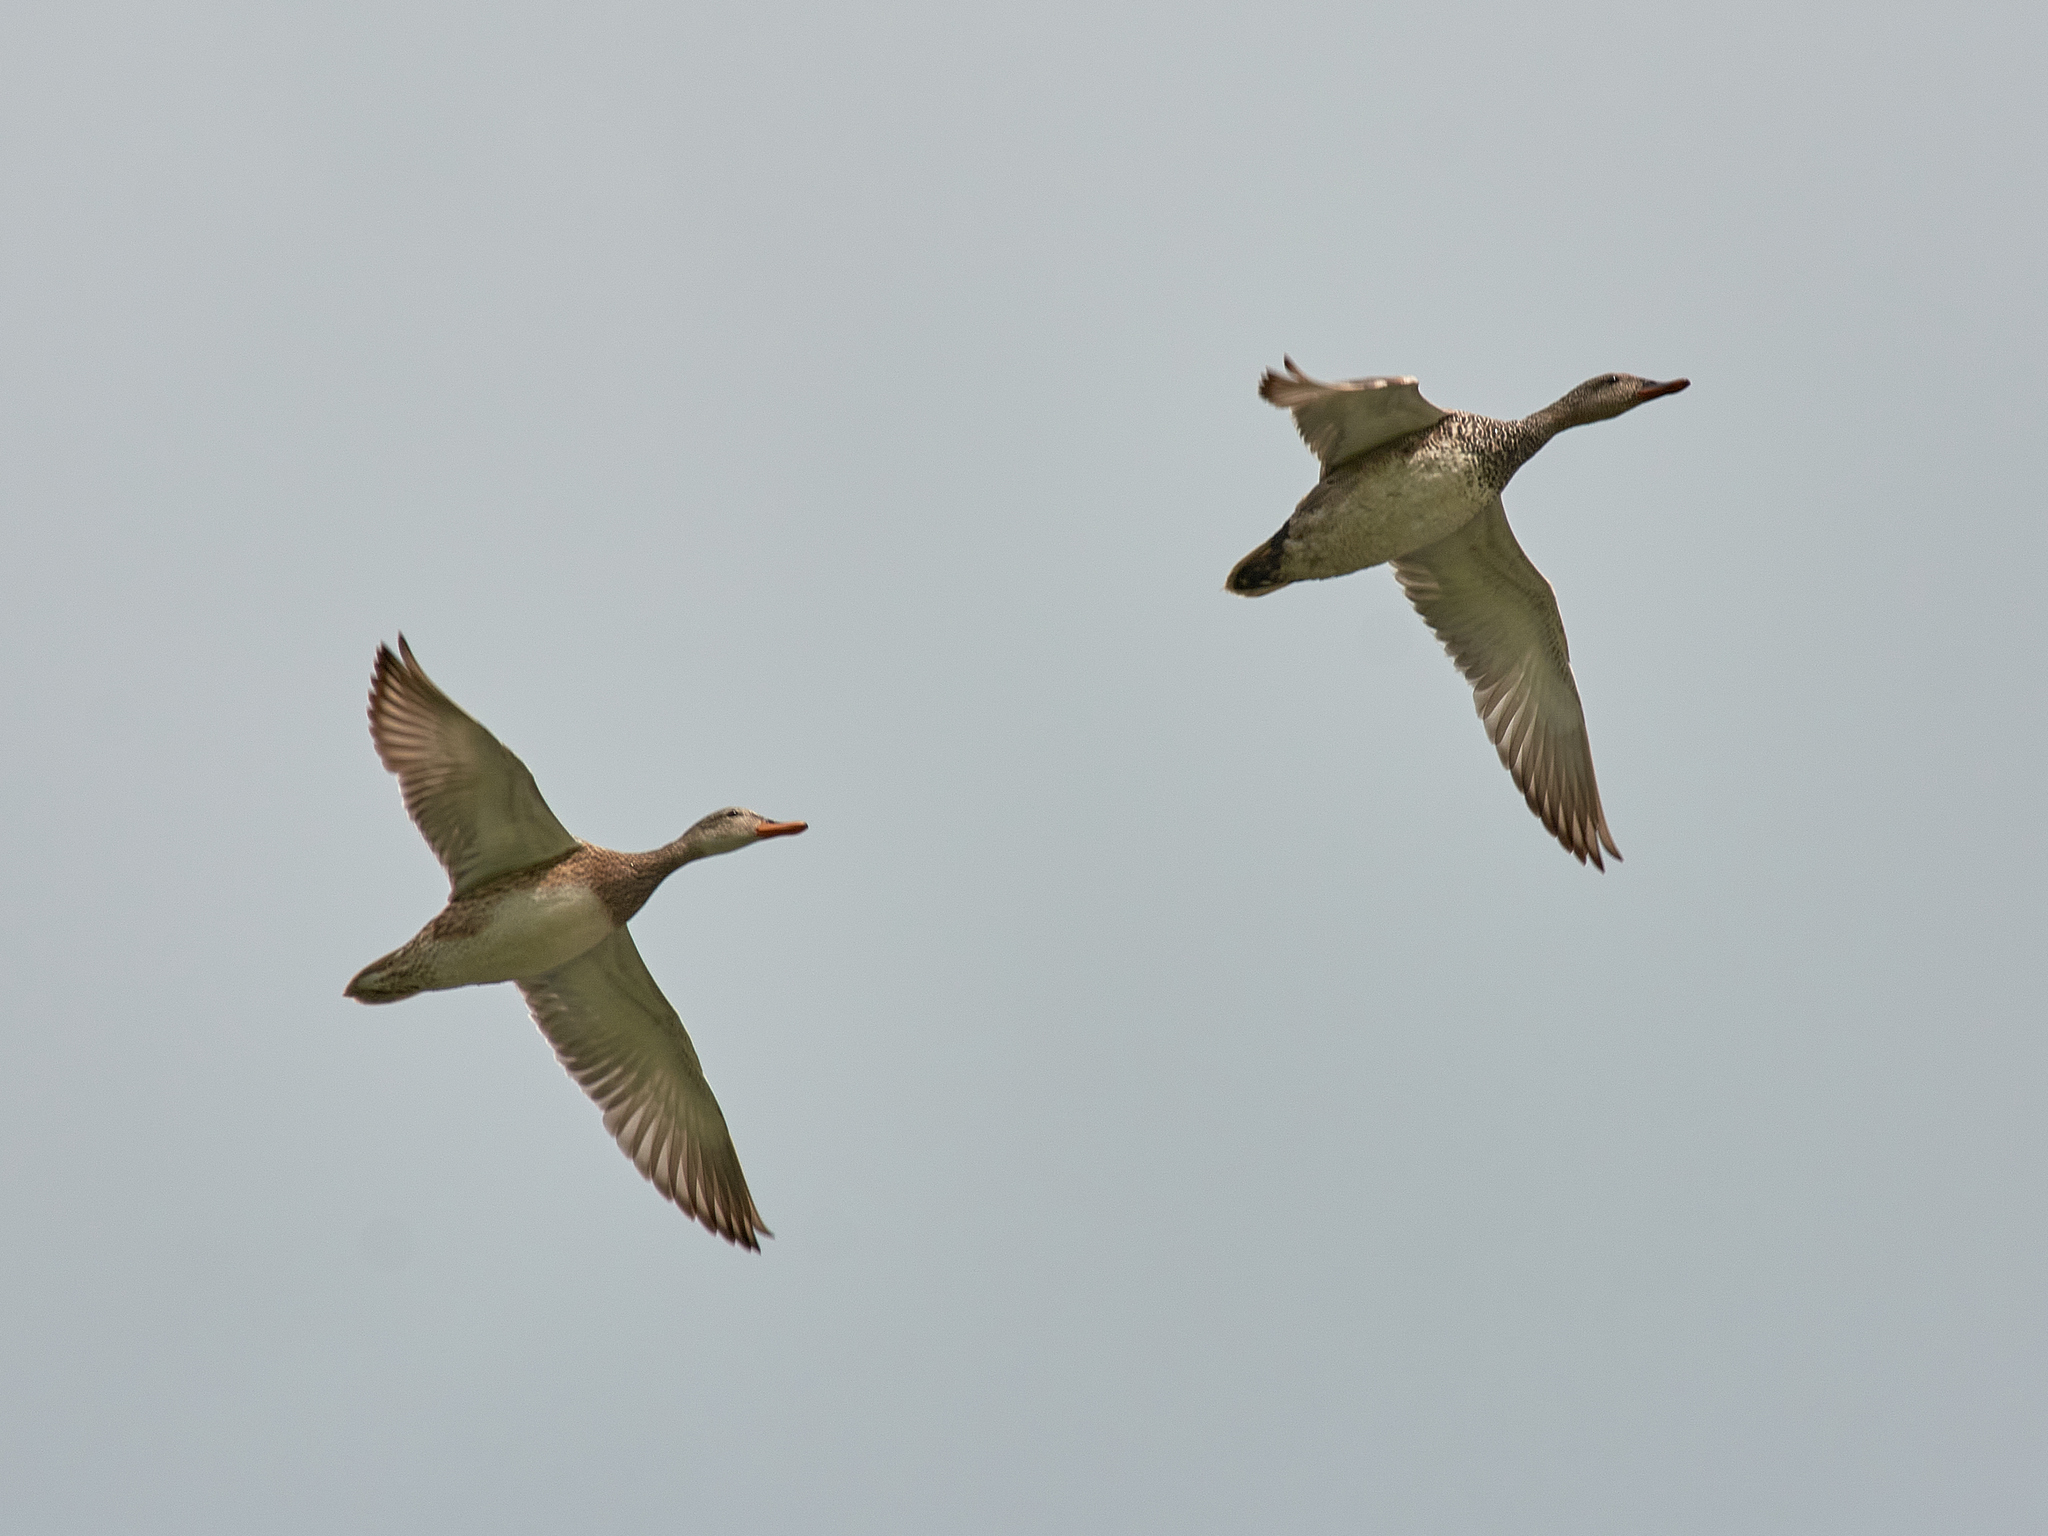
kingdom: Animalia
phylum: Chordata
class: Aves
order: Anseriformes
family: Anatidae
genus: Mareca
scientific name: Mareca strepera
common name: Gadwall
